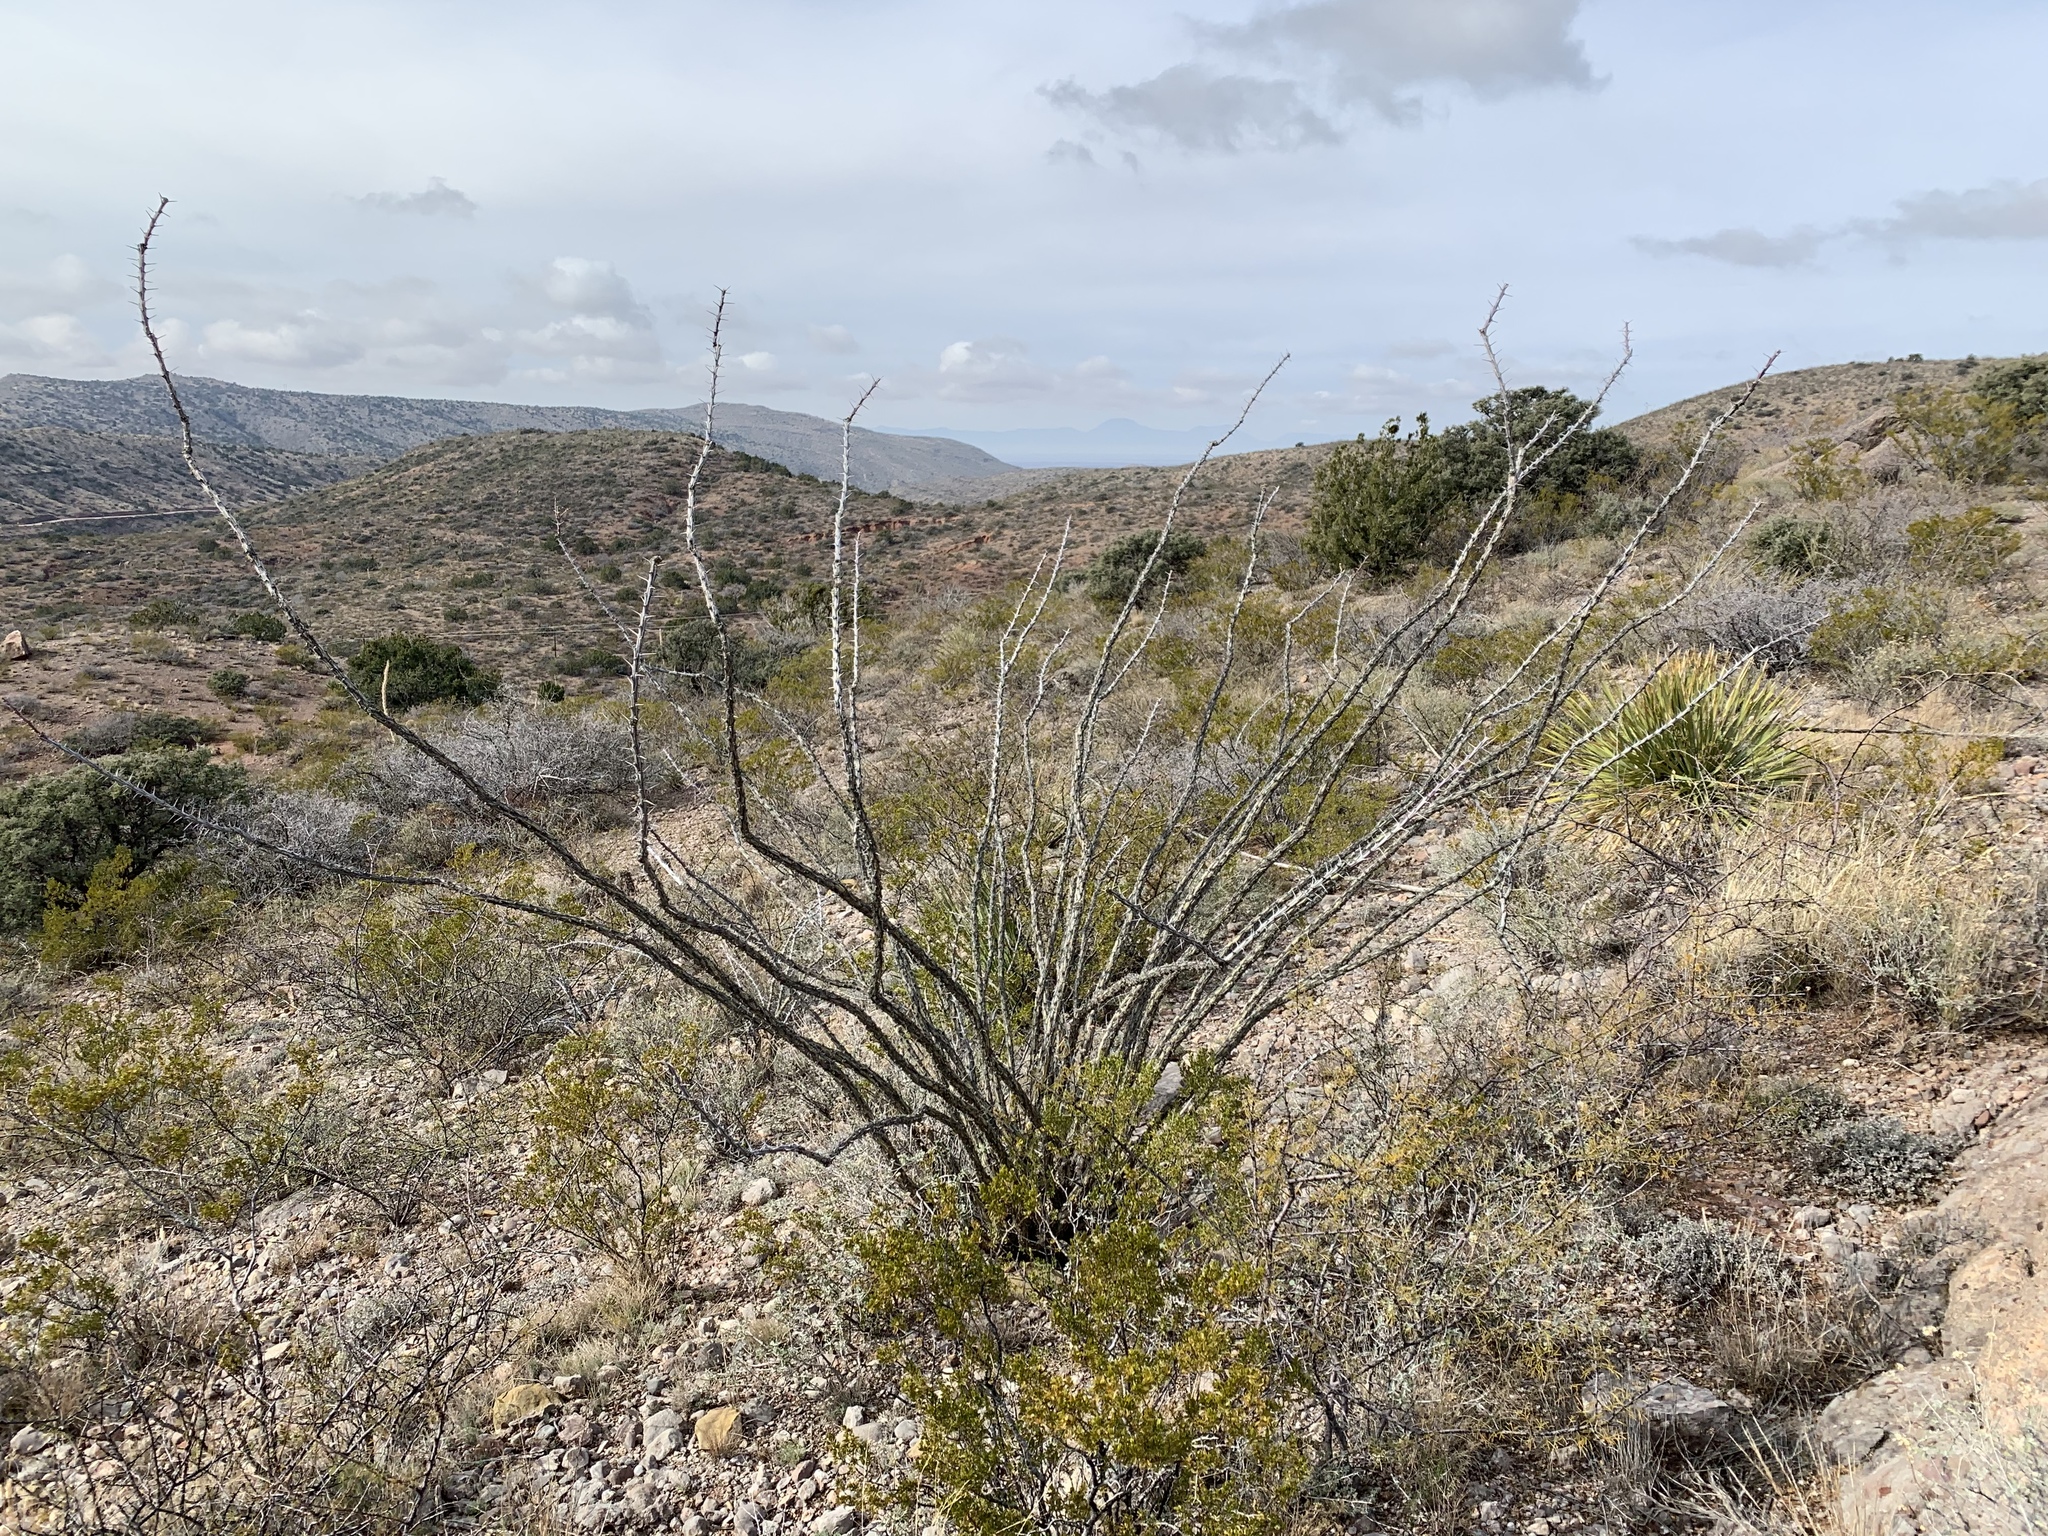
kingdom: Plantae
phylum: Tracheophyta
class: Magnoliopsida
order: Ericales
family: Fouquieriaceae
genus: Fouquieria
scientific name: Fouquieria splendens
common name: Vine-cactus
